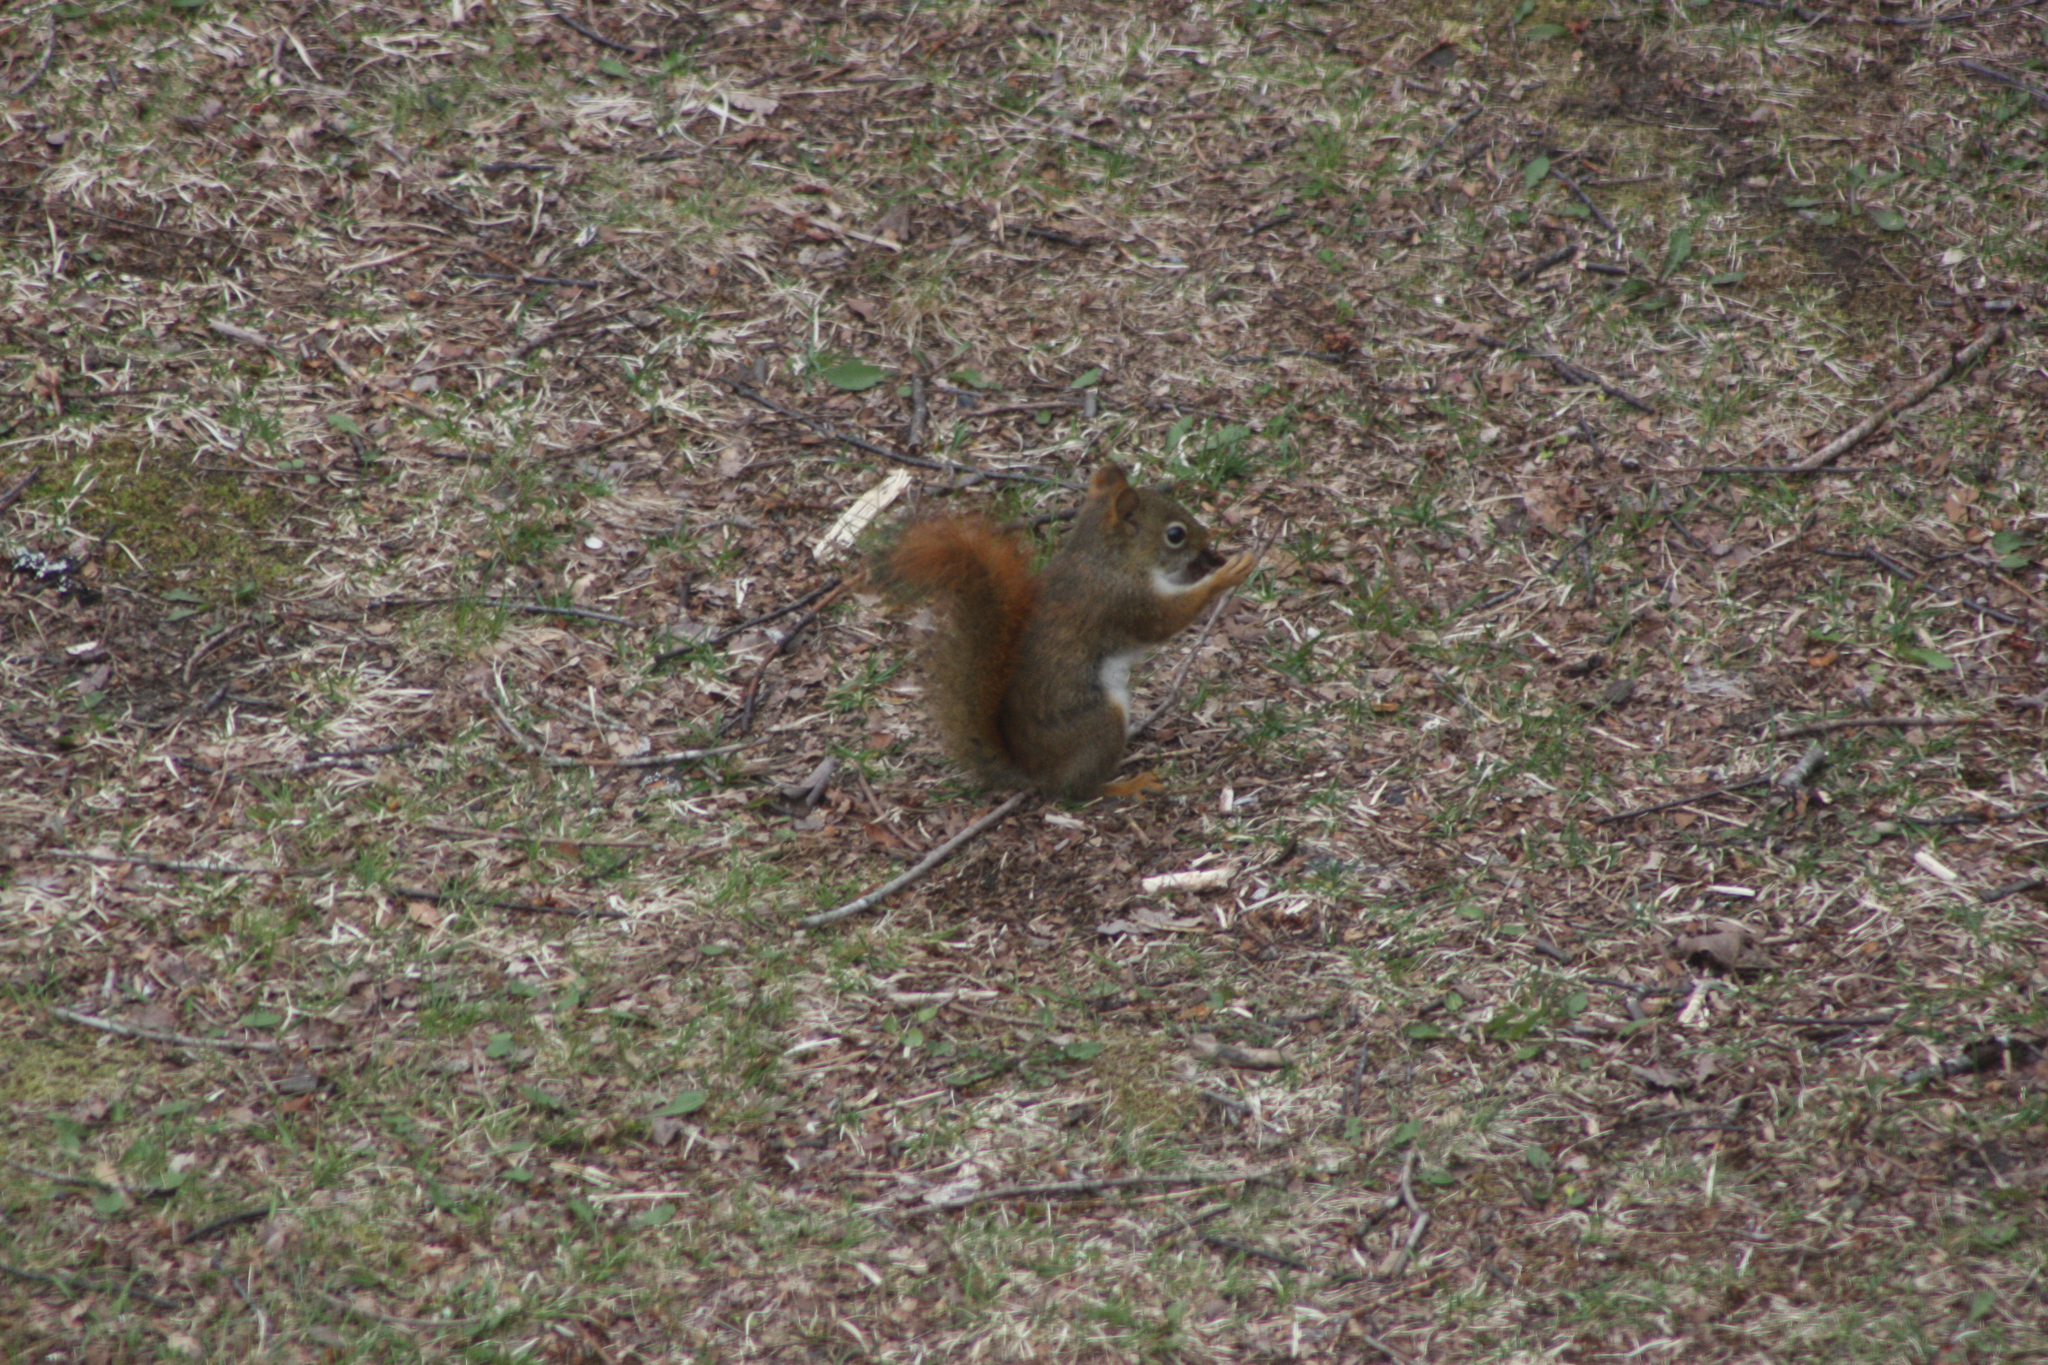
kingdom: Animalia
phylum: Chordata
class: Mammalia
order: Rodentia
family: Sciuridae
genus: Tamiasciurus
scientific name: Tamiasciurus hudsonicus
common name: Red squirrel
